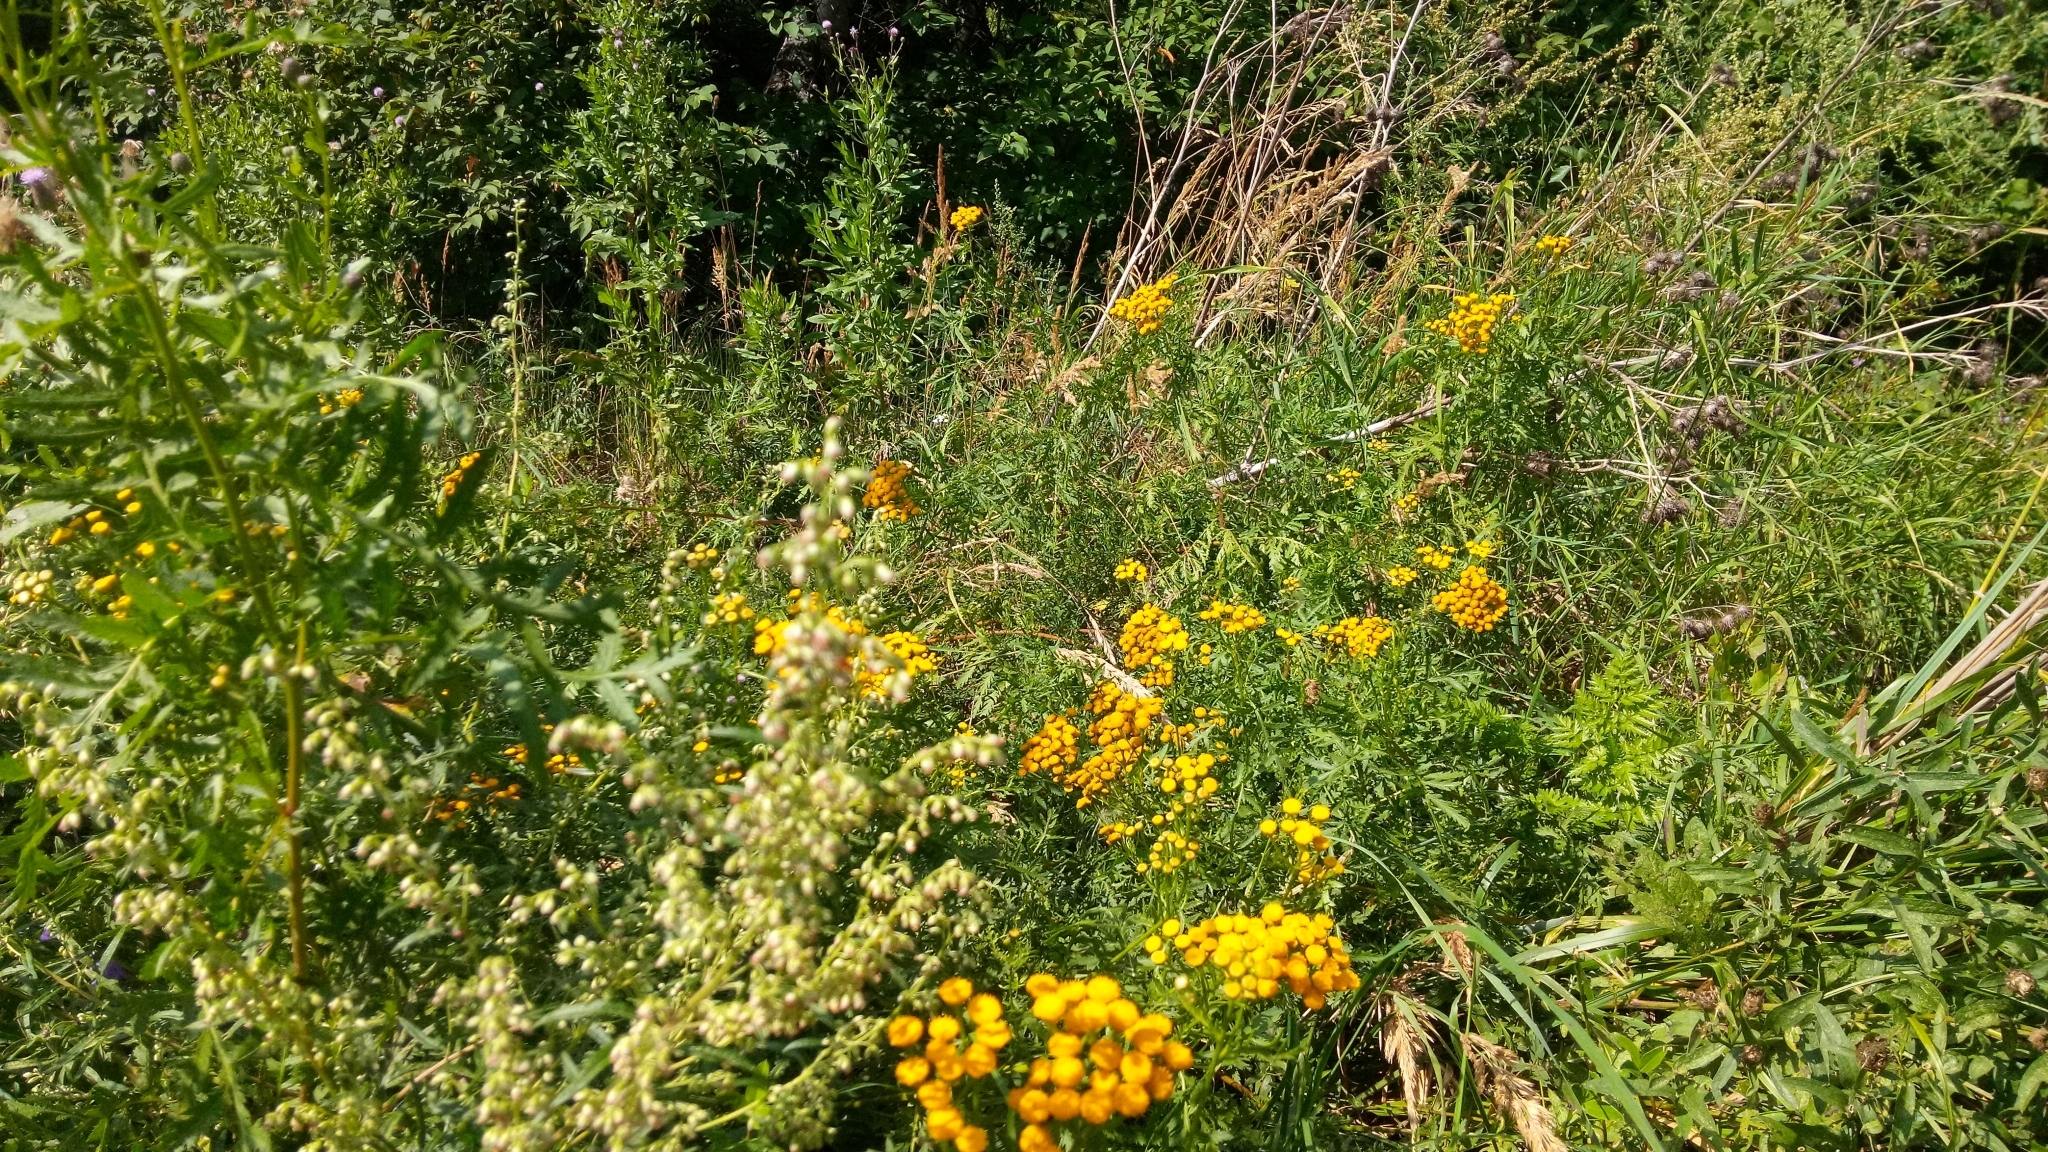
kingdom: Plantae
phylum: Tracheophyta
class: Magnoliopsida
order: Asterales
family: Asteraceae
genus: Tanacetum
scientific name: Tanacetum vulgare
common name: Common tansy
